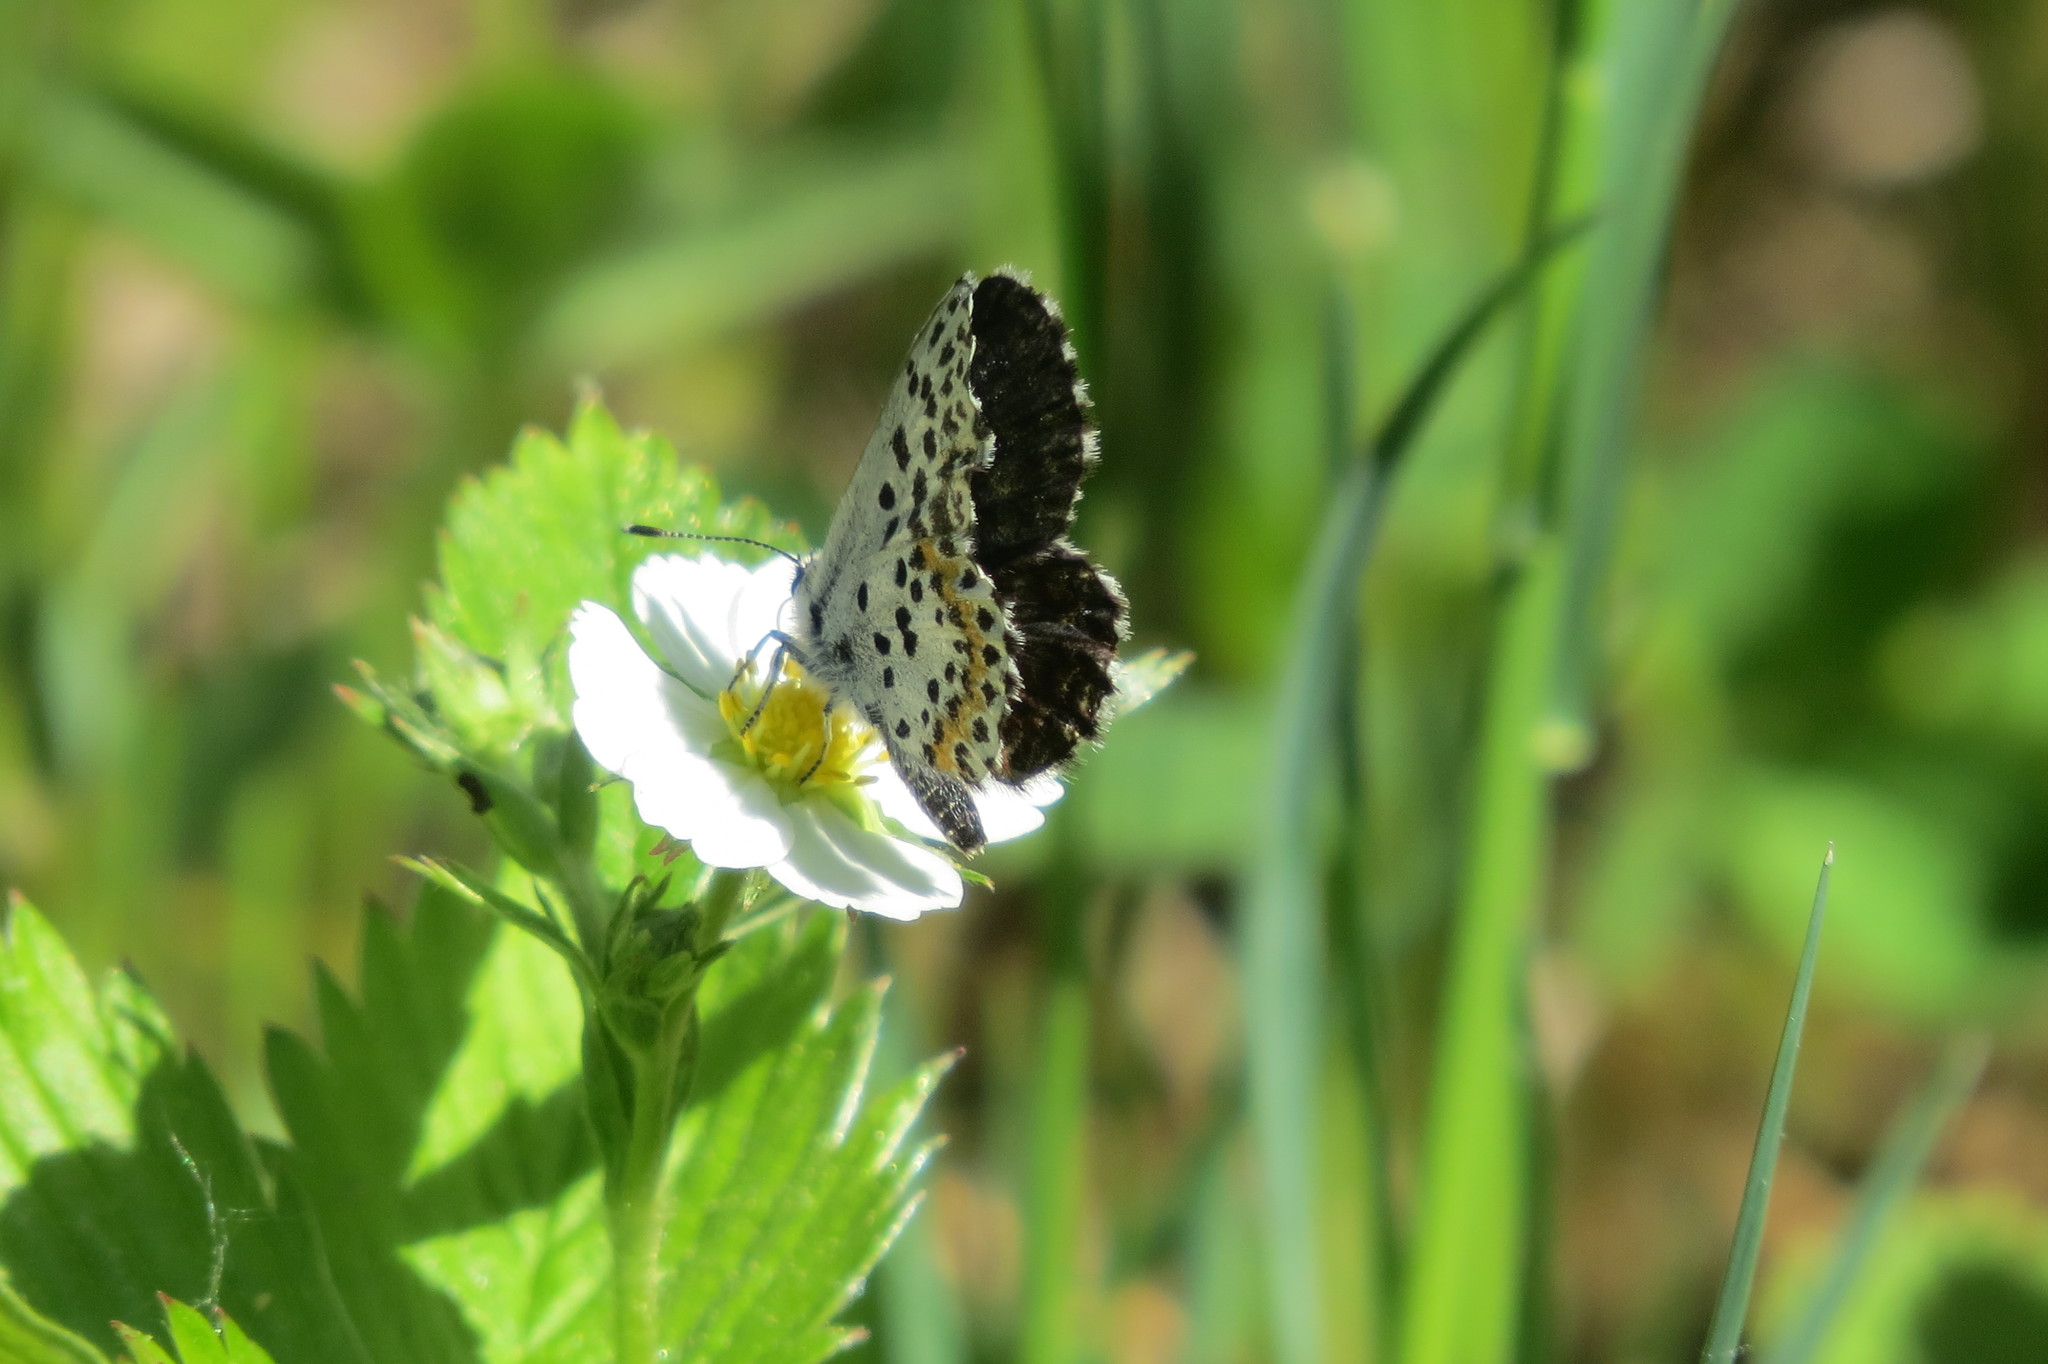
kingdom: Animalia
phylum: Arthropoda
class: Insecta
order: Lepidoptera
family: Lycaenidae
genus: Scolitantides
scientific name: Scolitantides orion
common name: Chequered blue
